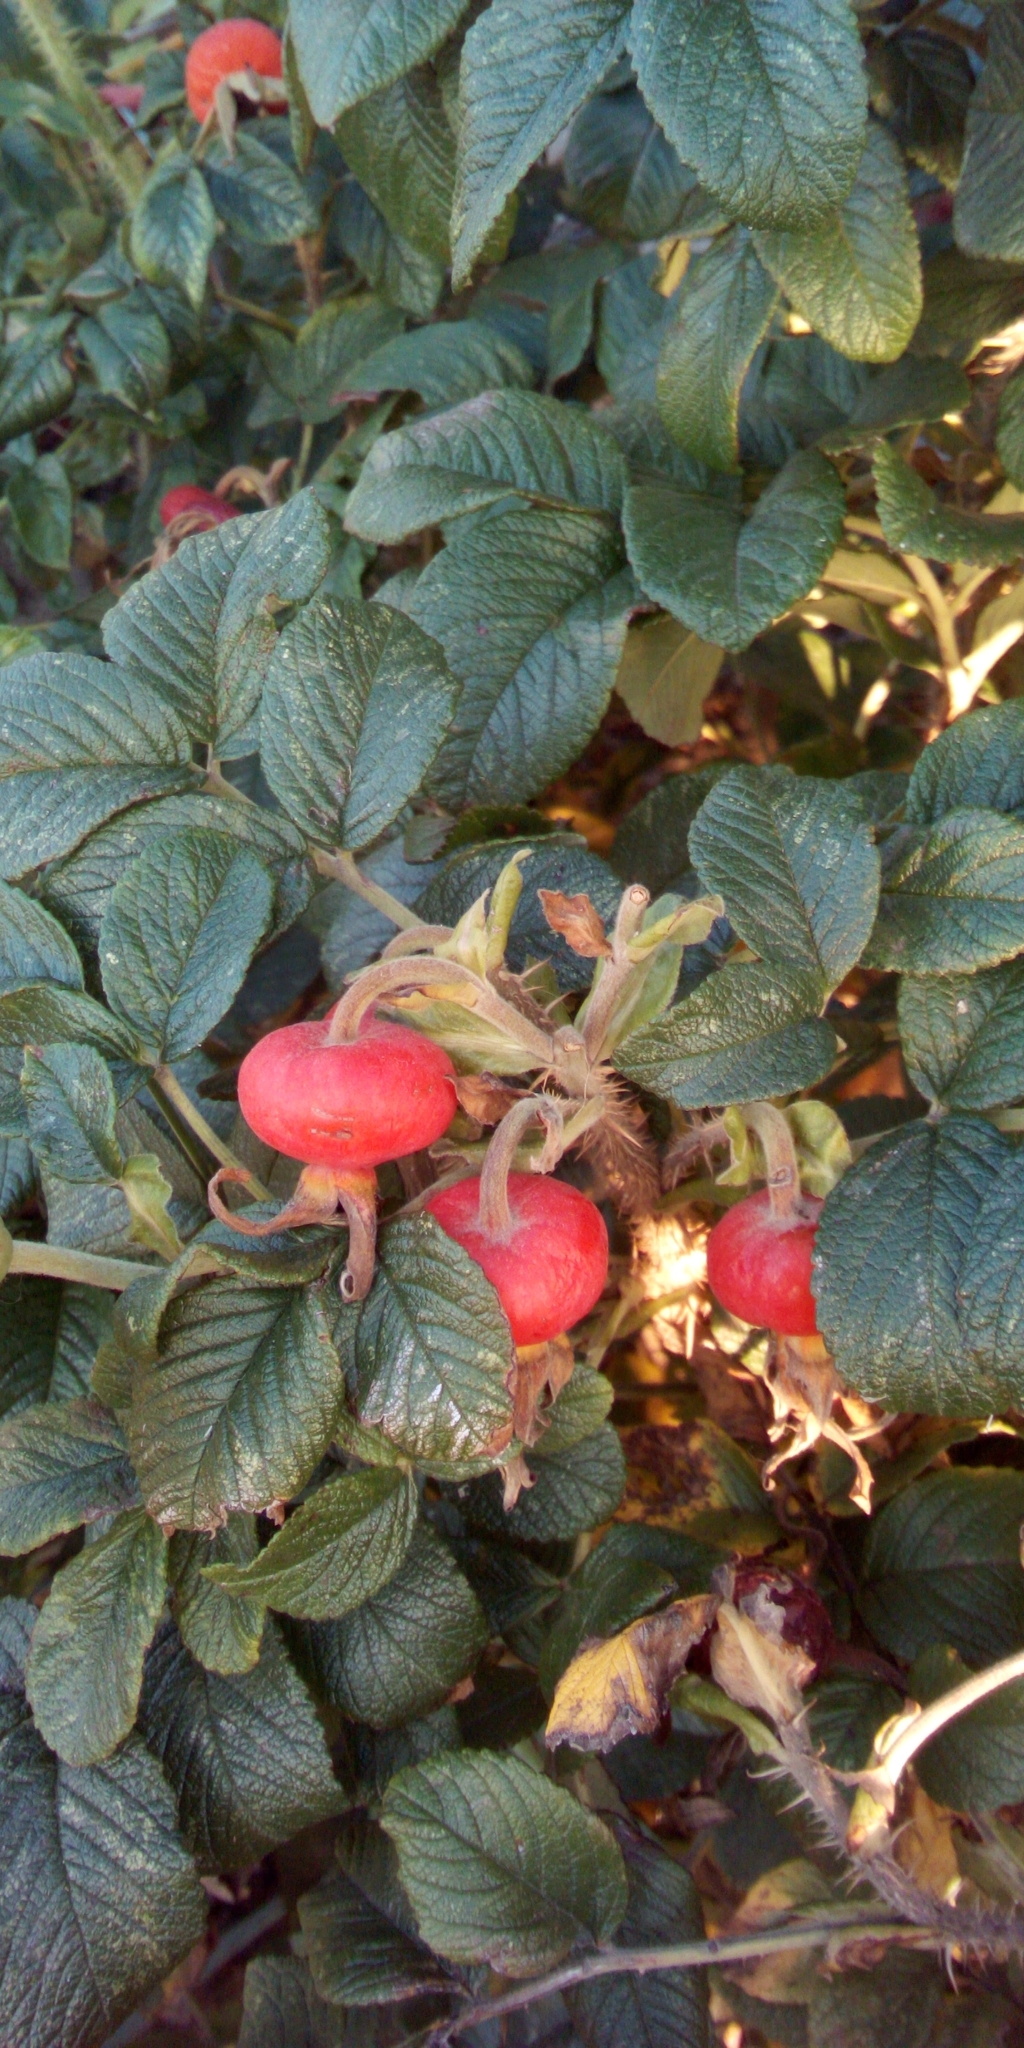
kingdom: Plantae
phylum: Tracheophyta
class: Magnoliopsida
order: Rosales
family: Rosaceae
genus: Rosa
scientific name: Rosa rugosa
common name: Japanese rose
